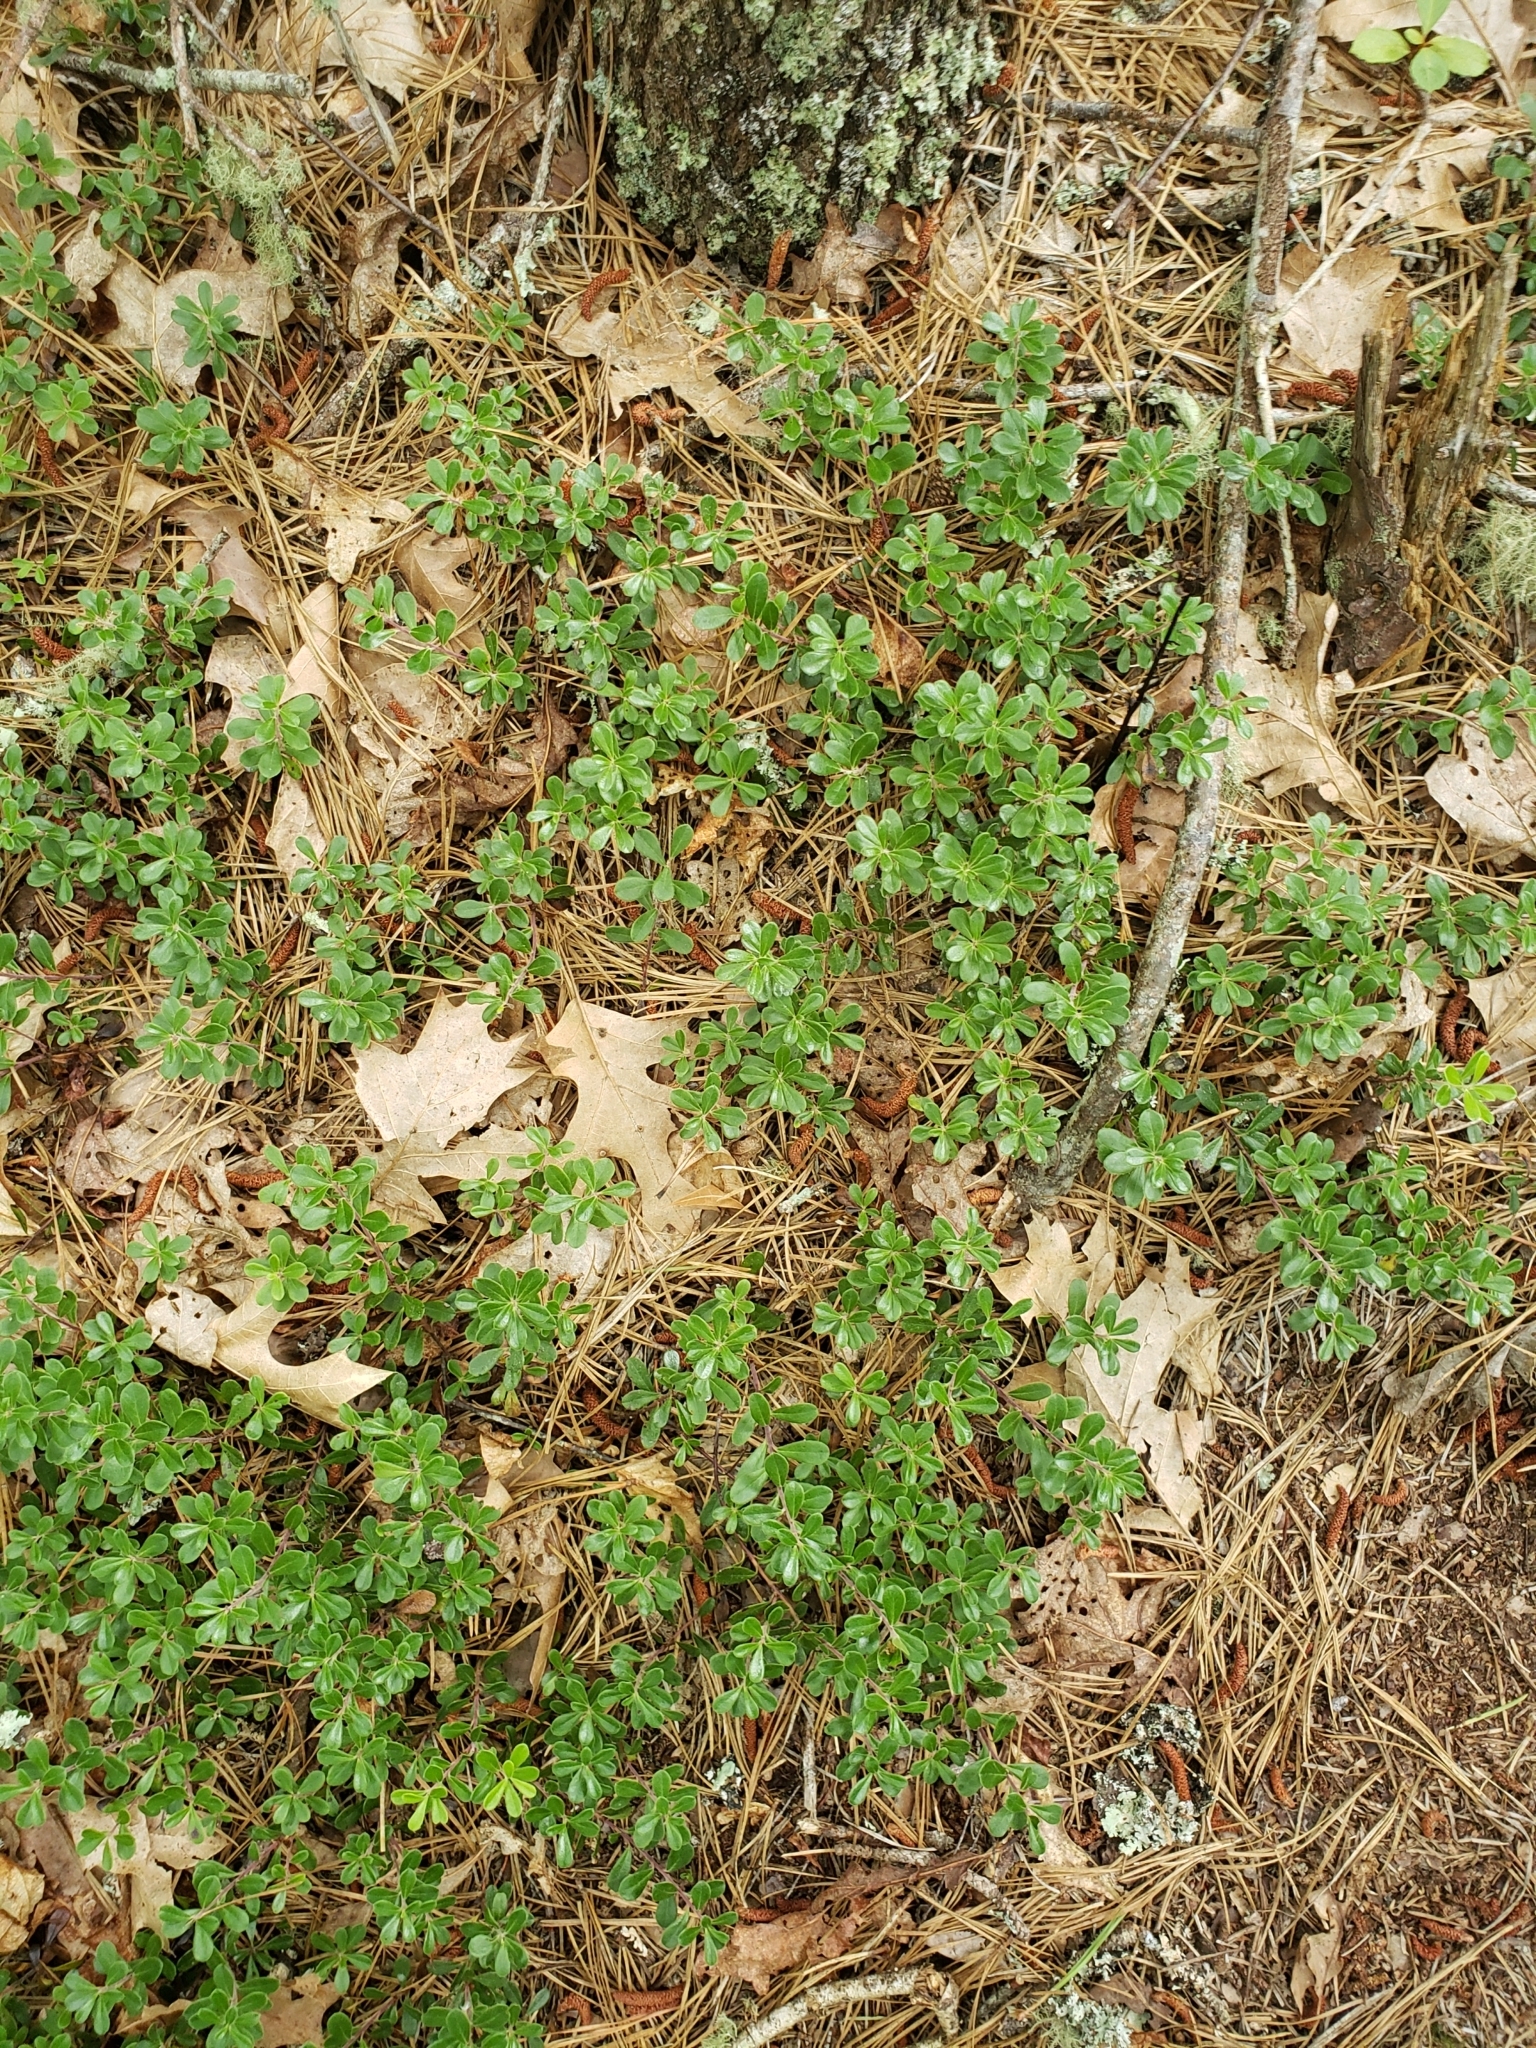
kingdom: Plantae
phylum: Tracheophyta
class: Magnoliopsida
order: Ericales
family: Ericaceae
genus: Arctostaphylos
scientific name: Arctostaphylos uva-ursi
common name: Bearberry
